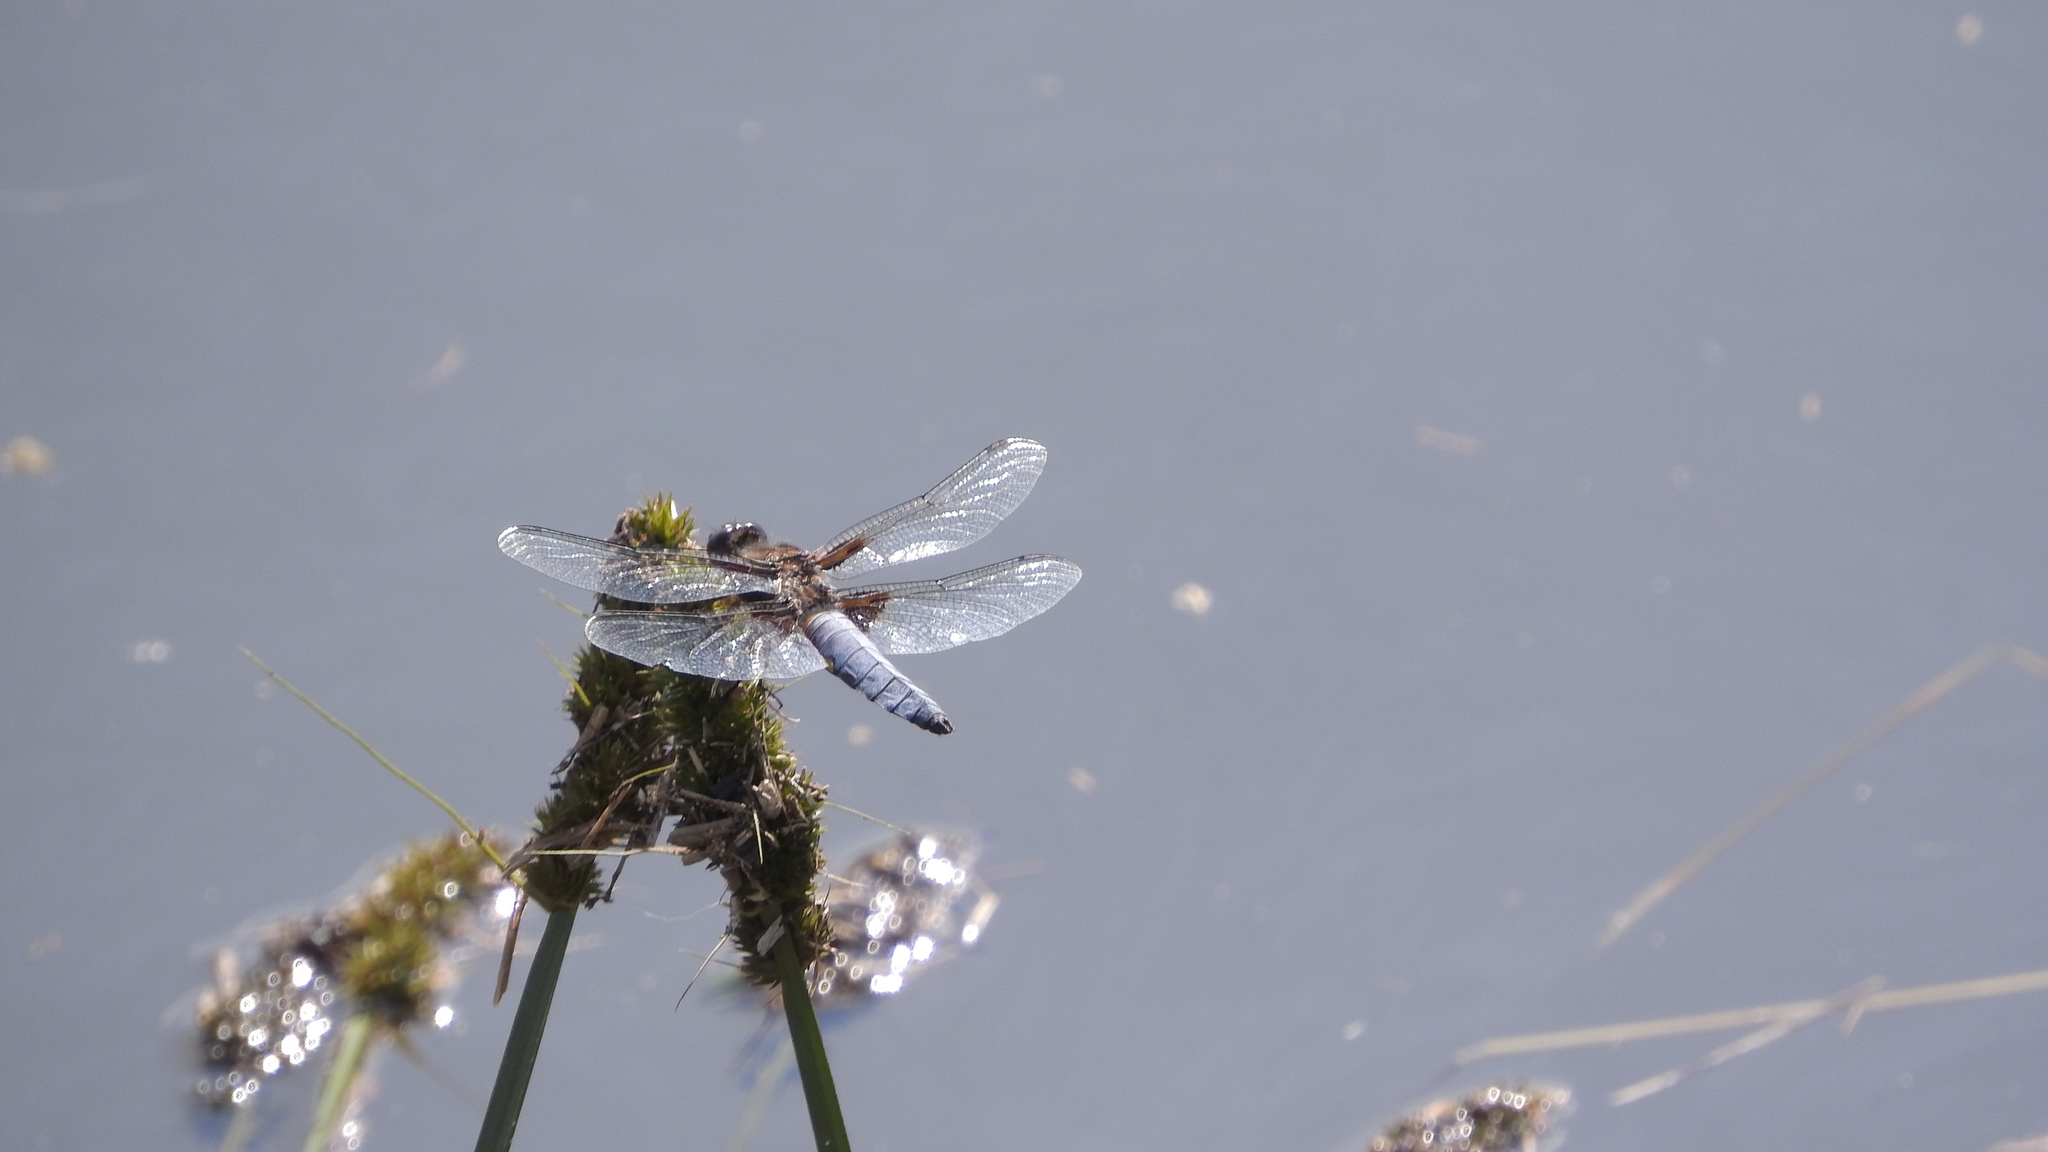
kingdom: Animalia
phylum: Arthropoda
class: Insecta
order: Odonata
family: Libellulidae
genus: Libellula
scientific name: Libellula depressa
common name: Broad-bodied chaser
